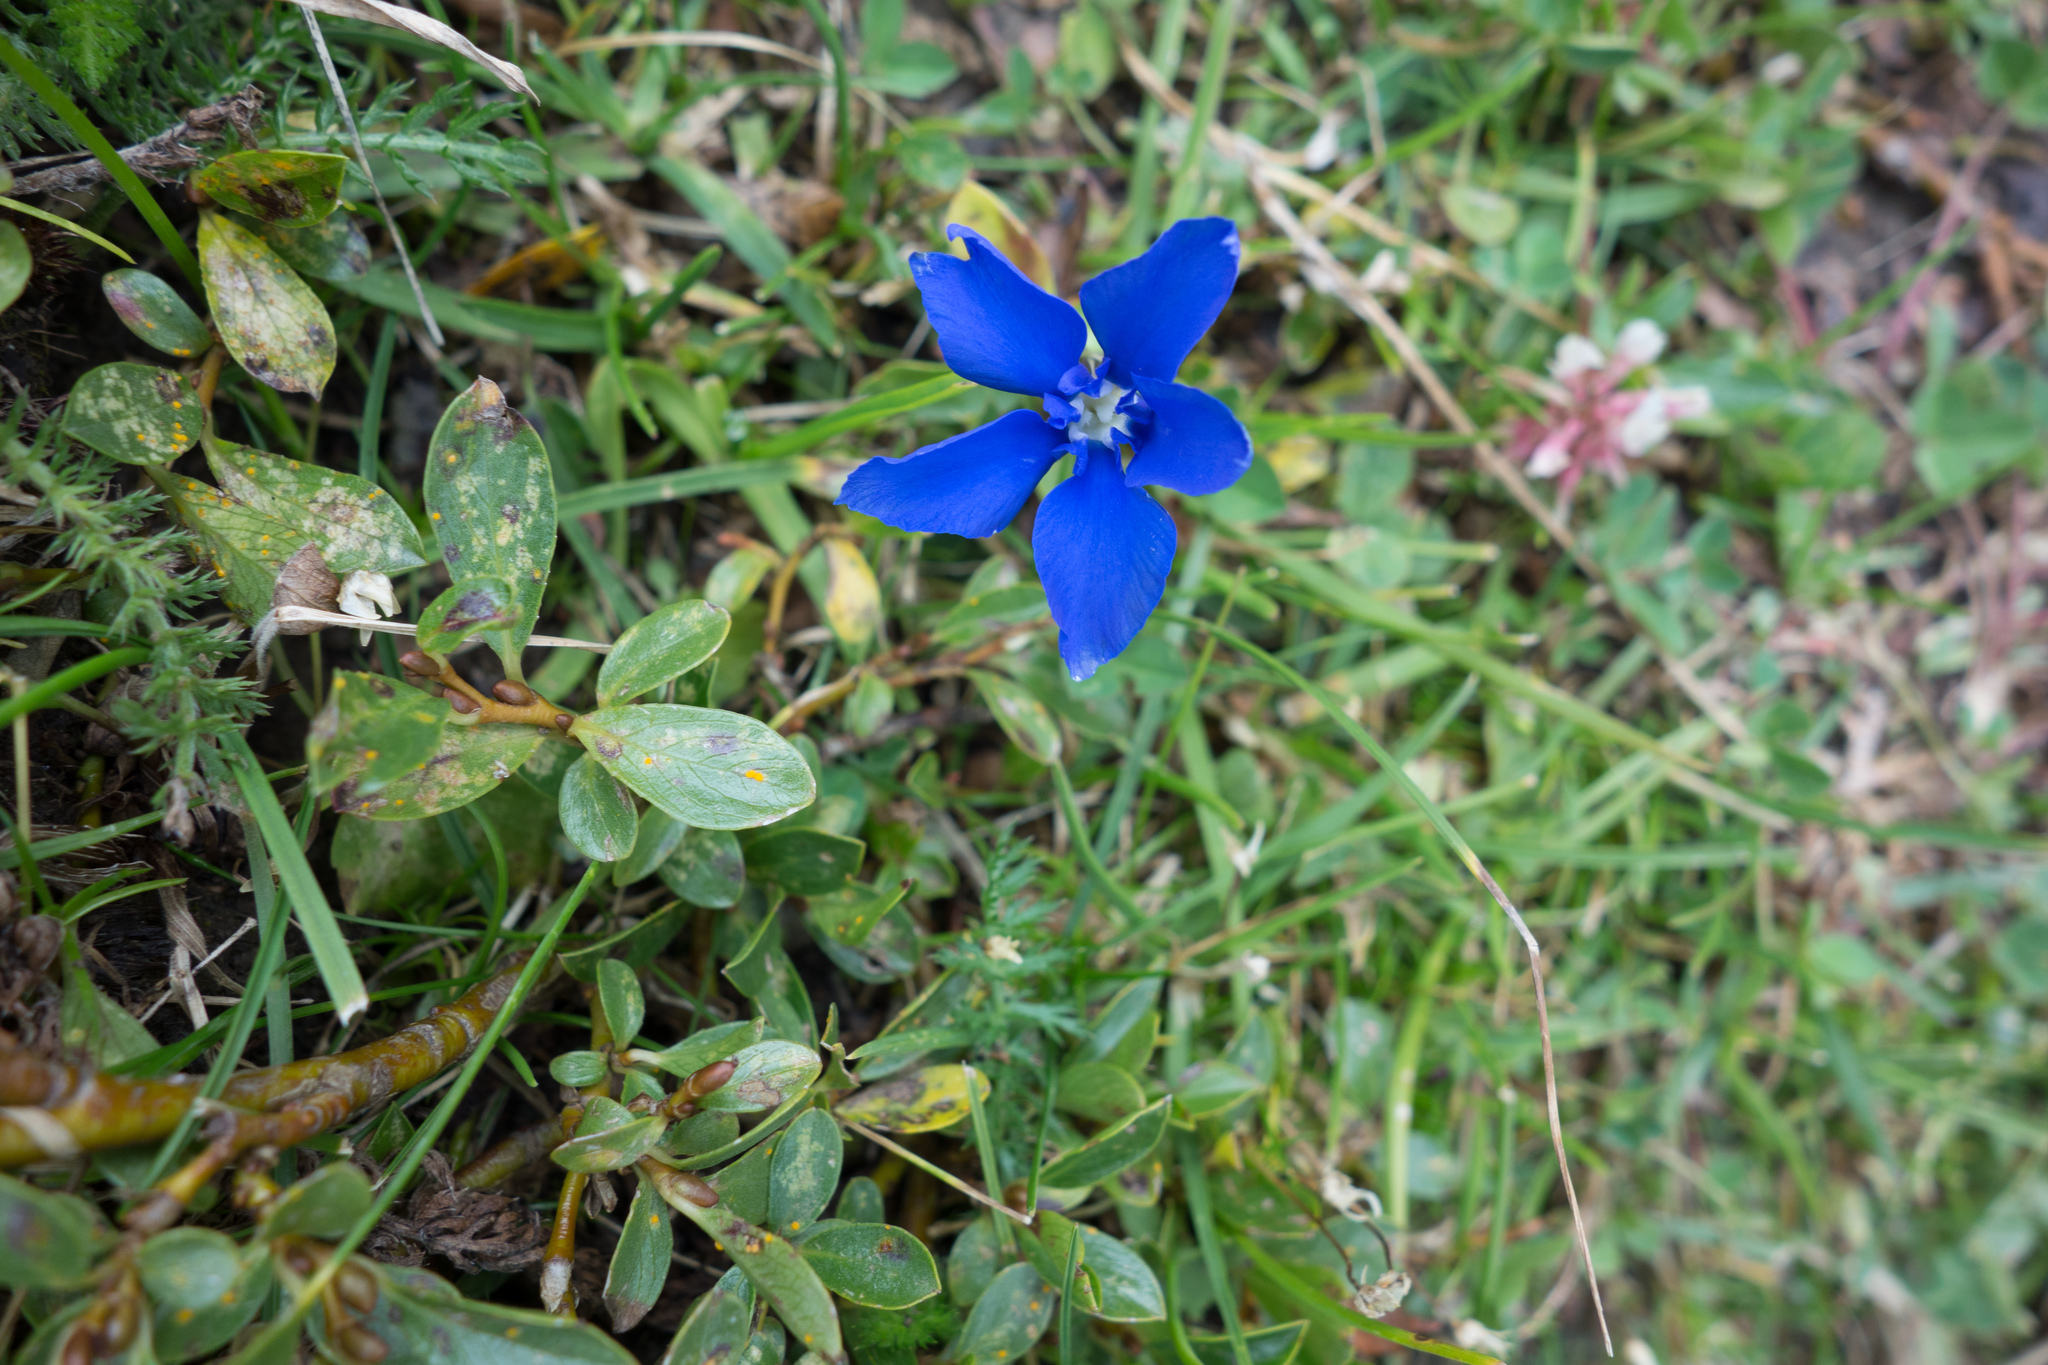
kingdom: Plantae
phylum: Tracheophyta
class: Magnoliopsida
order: Gentianales
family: Gentianaceae
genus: Gentiana
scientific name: Gentiana
